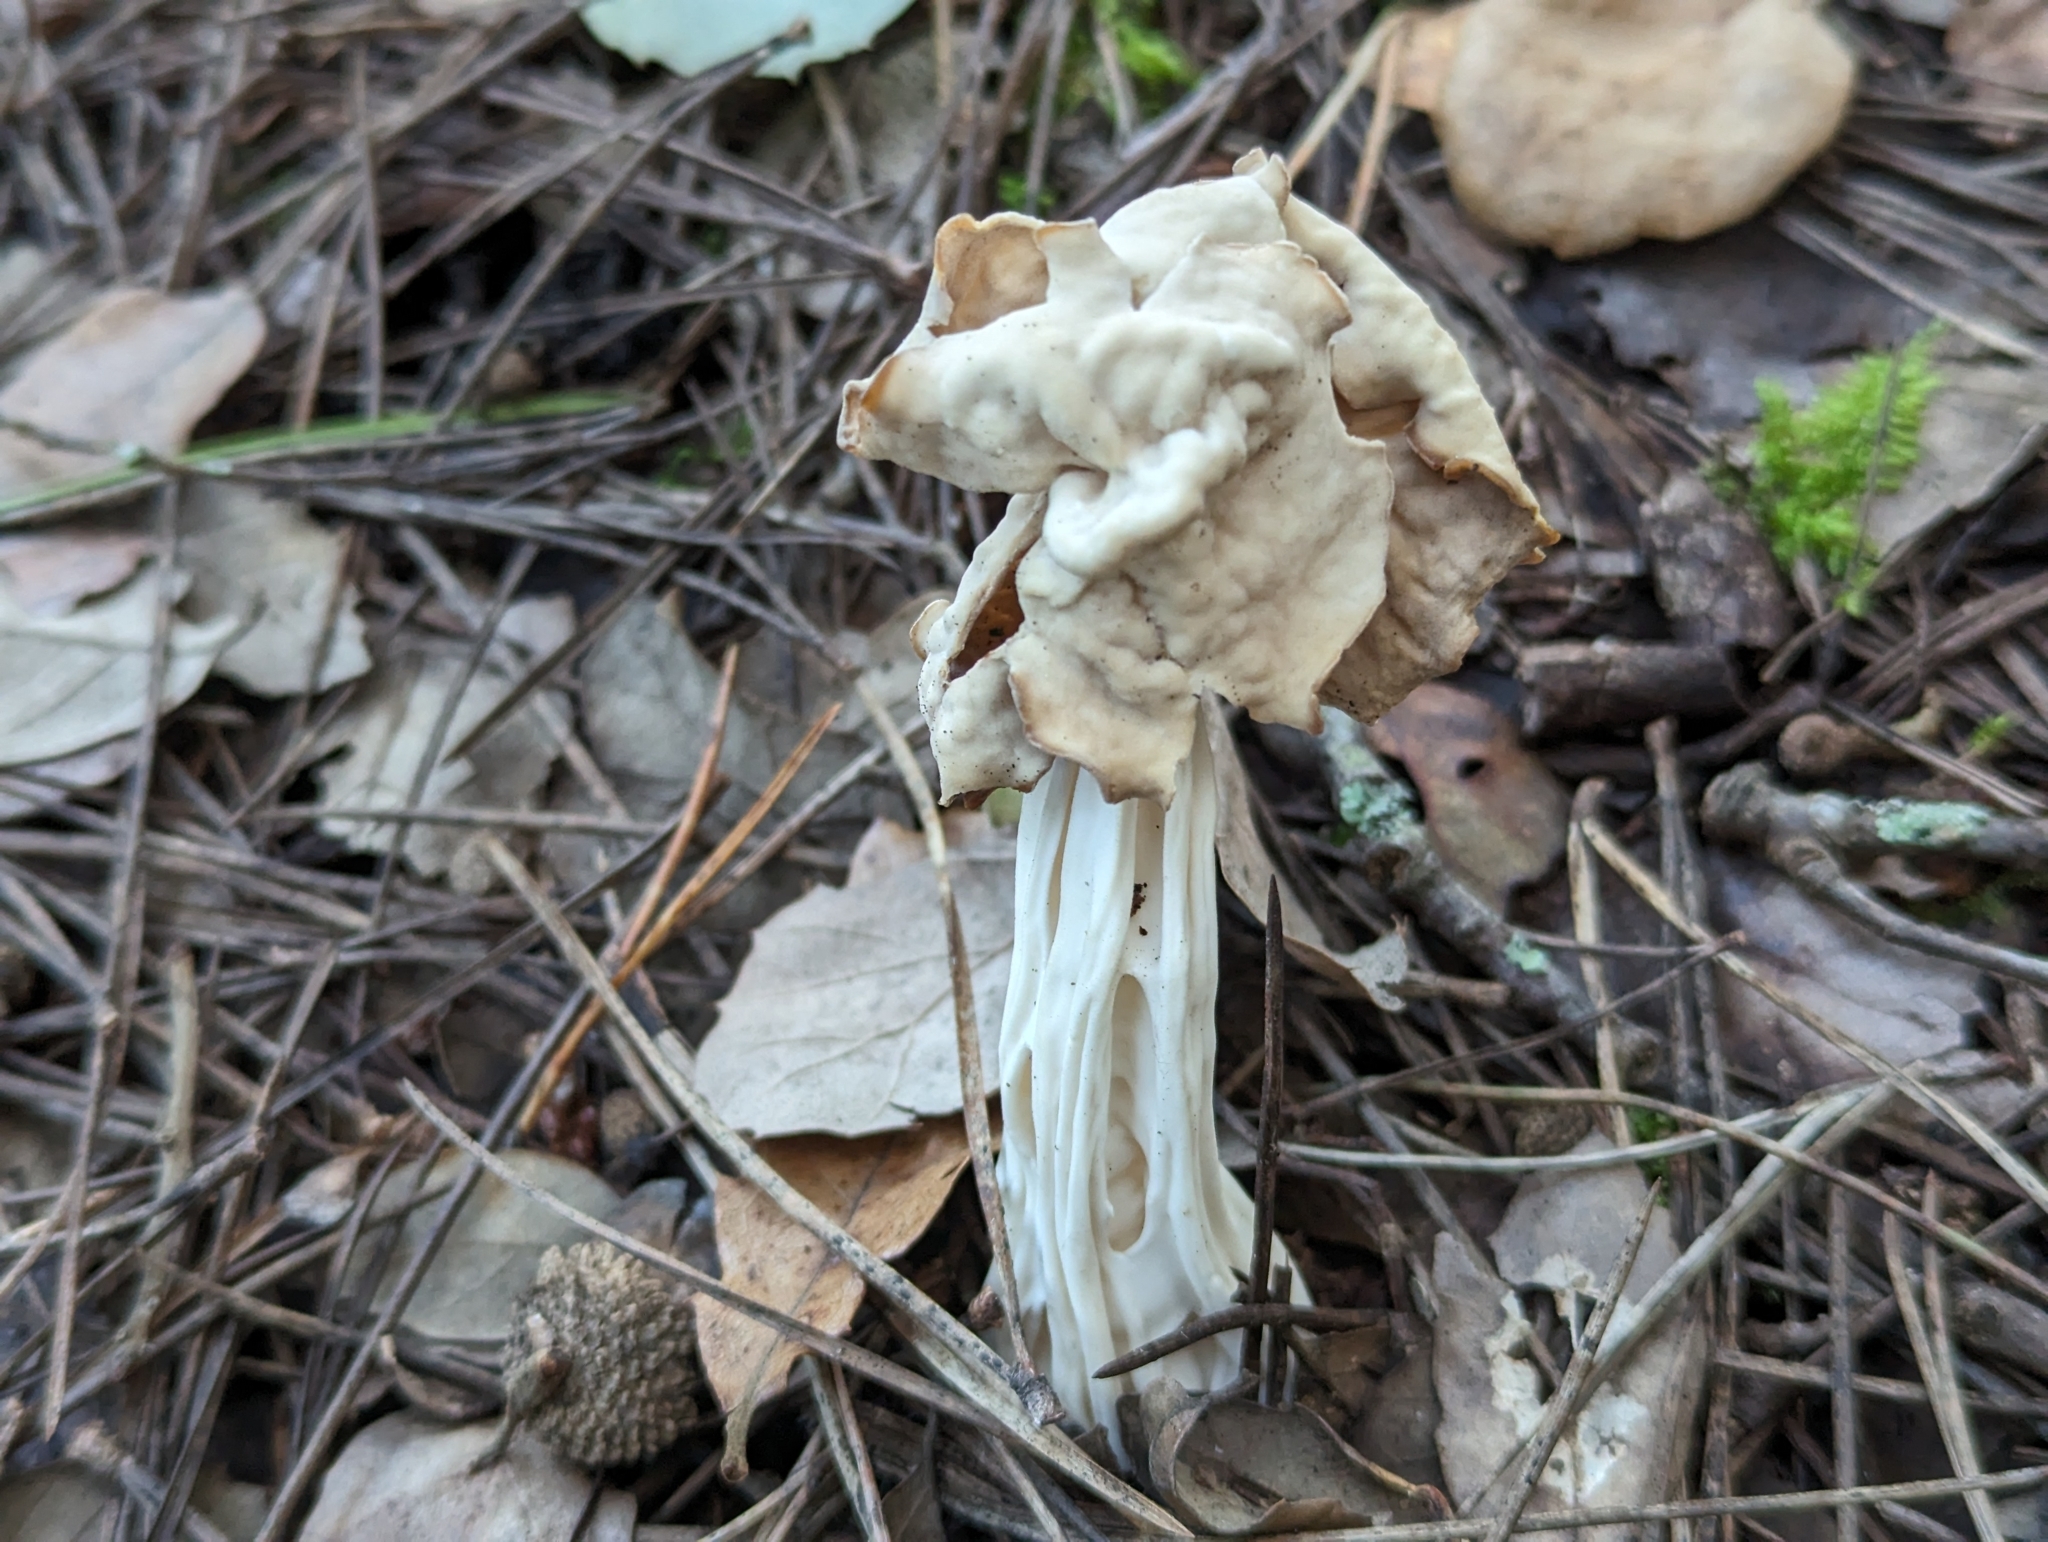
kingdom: Fungi
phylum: Ascomycota
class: Pezizomycetes
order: Pezizales
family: Helvellaceae
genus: Helvella
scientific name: Helvella crispa
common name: White saddle
